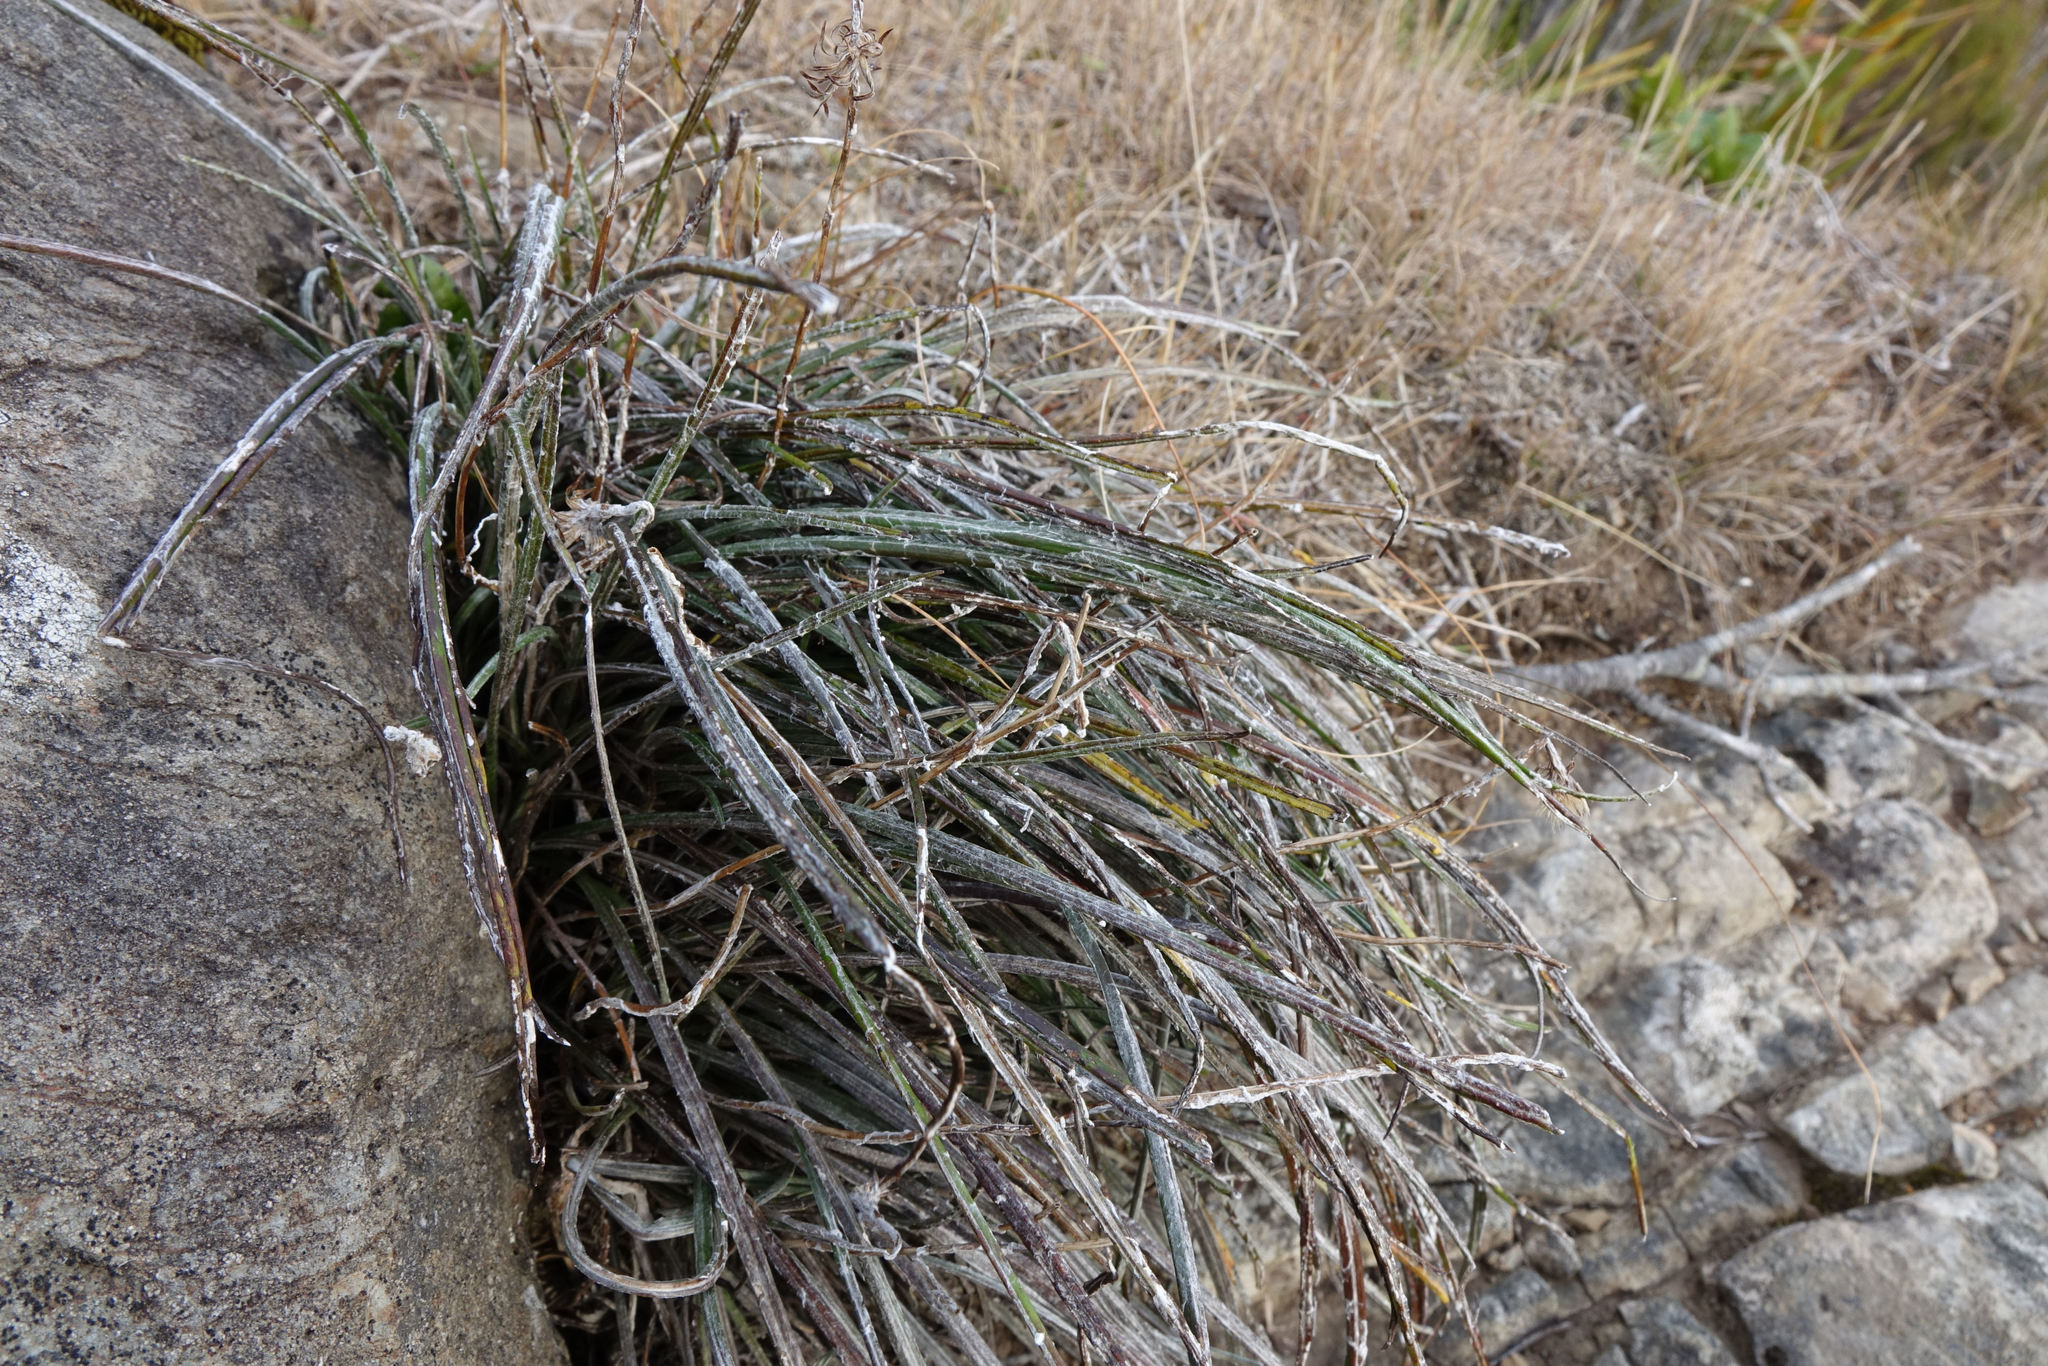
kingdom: Plantae
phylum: Tracheophyta
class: Magnoliopsida
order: Asterales
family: Asteraceae
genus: Celmisia
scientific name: Celmisia gracilenta
